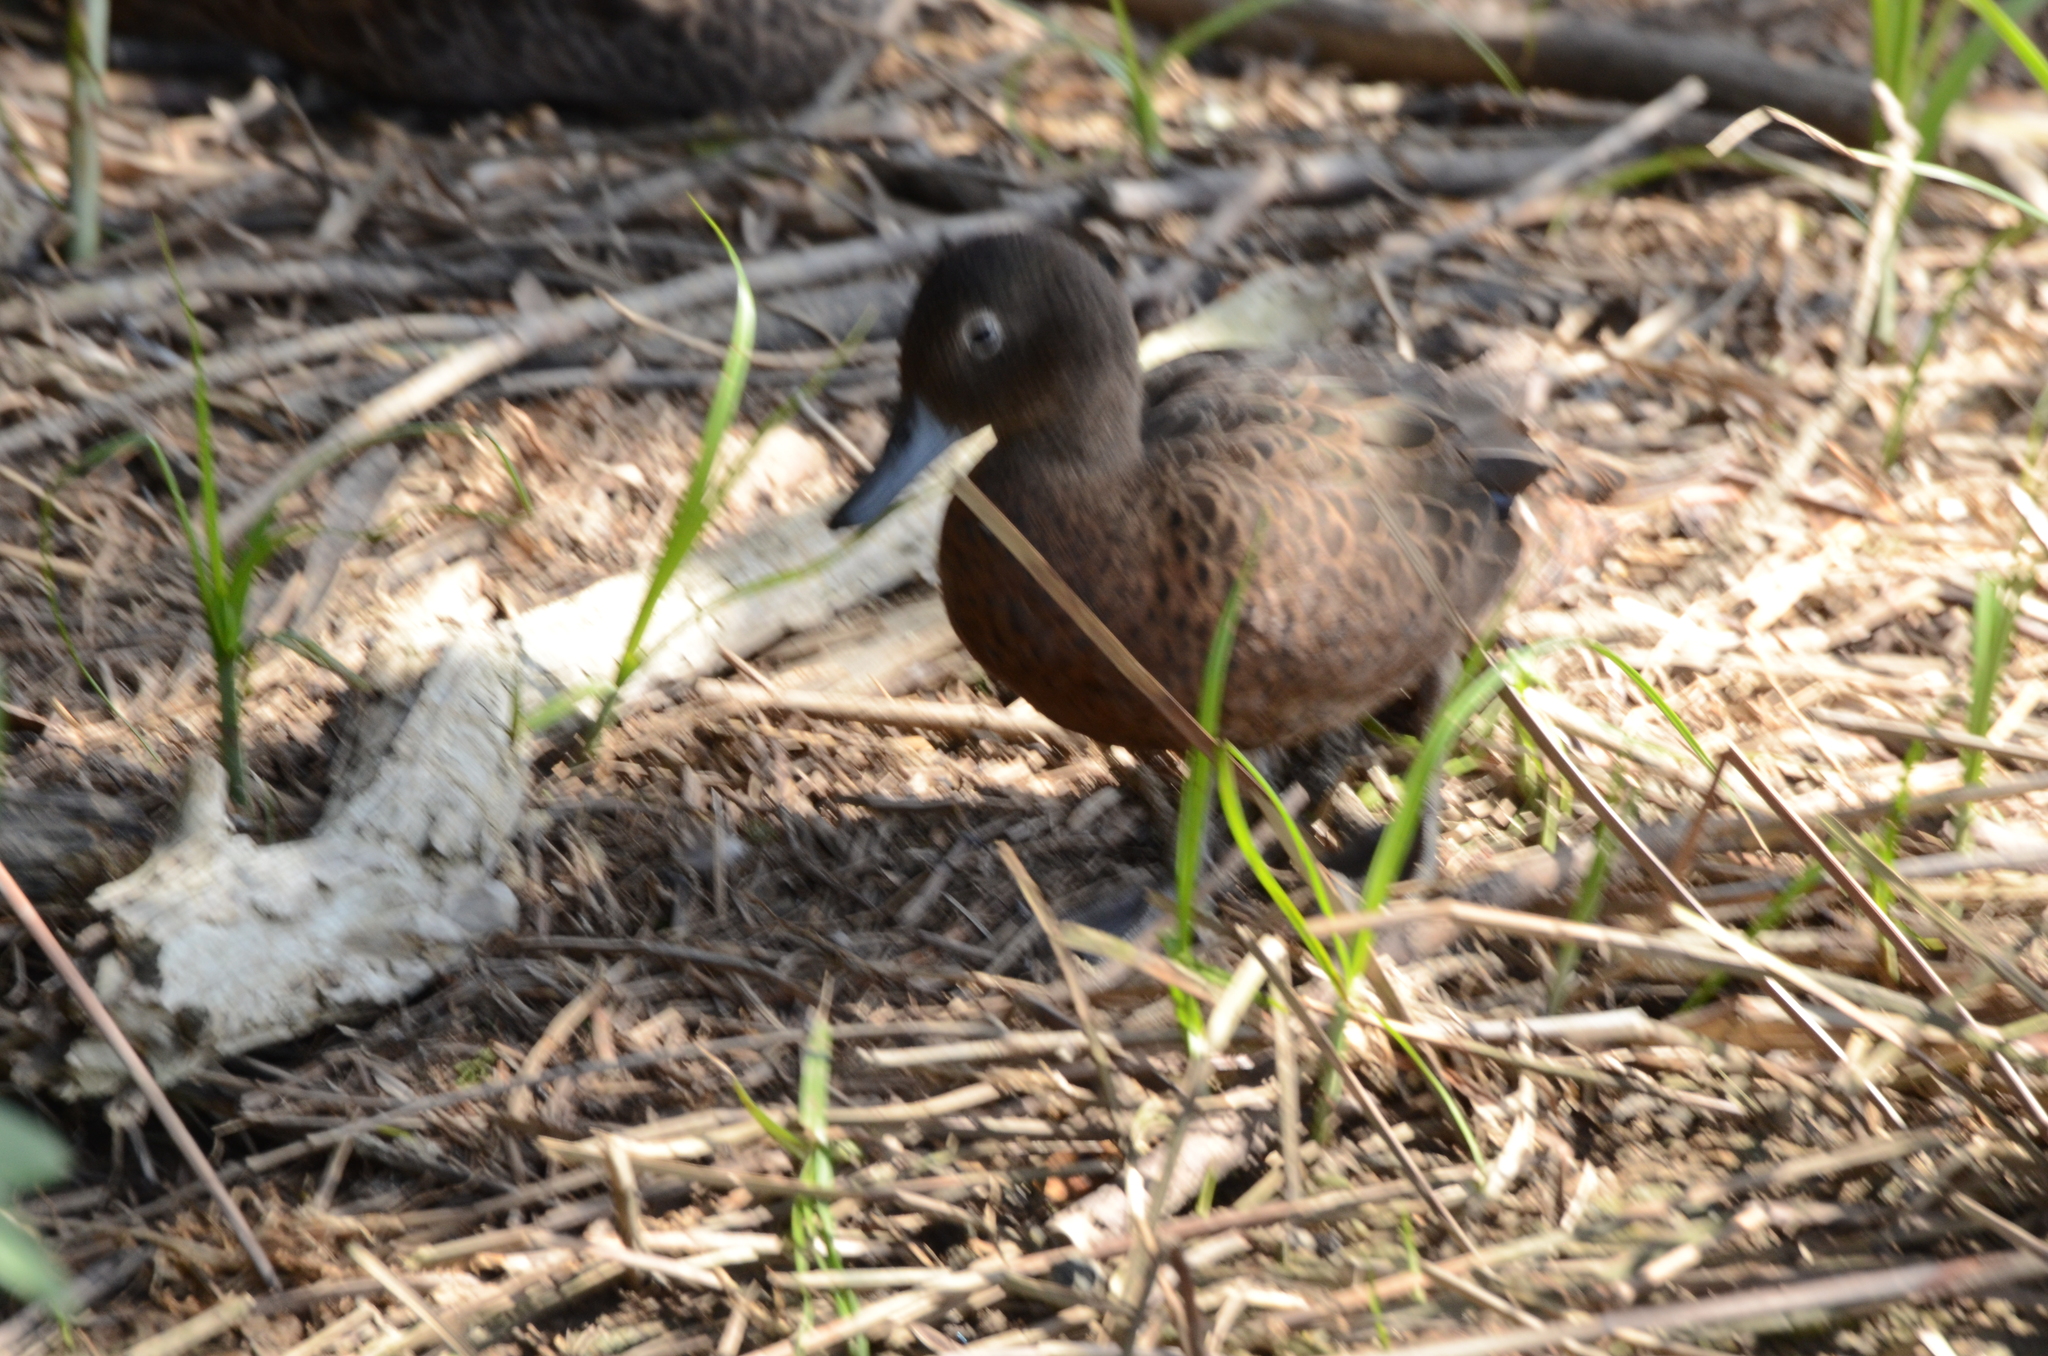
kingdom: Animalia
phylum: Chordata
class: Aves
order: Anseriformes
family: Anatidae
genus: Anas
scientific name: Anas chlorotis
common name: Brown teal
